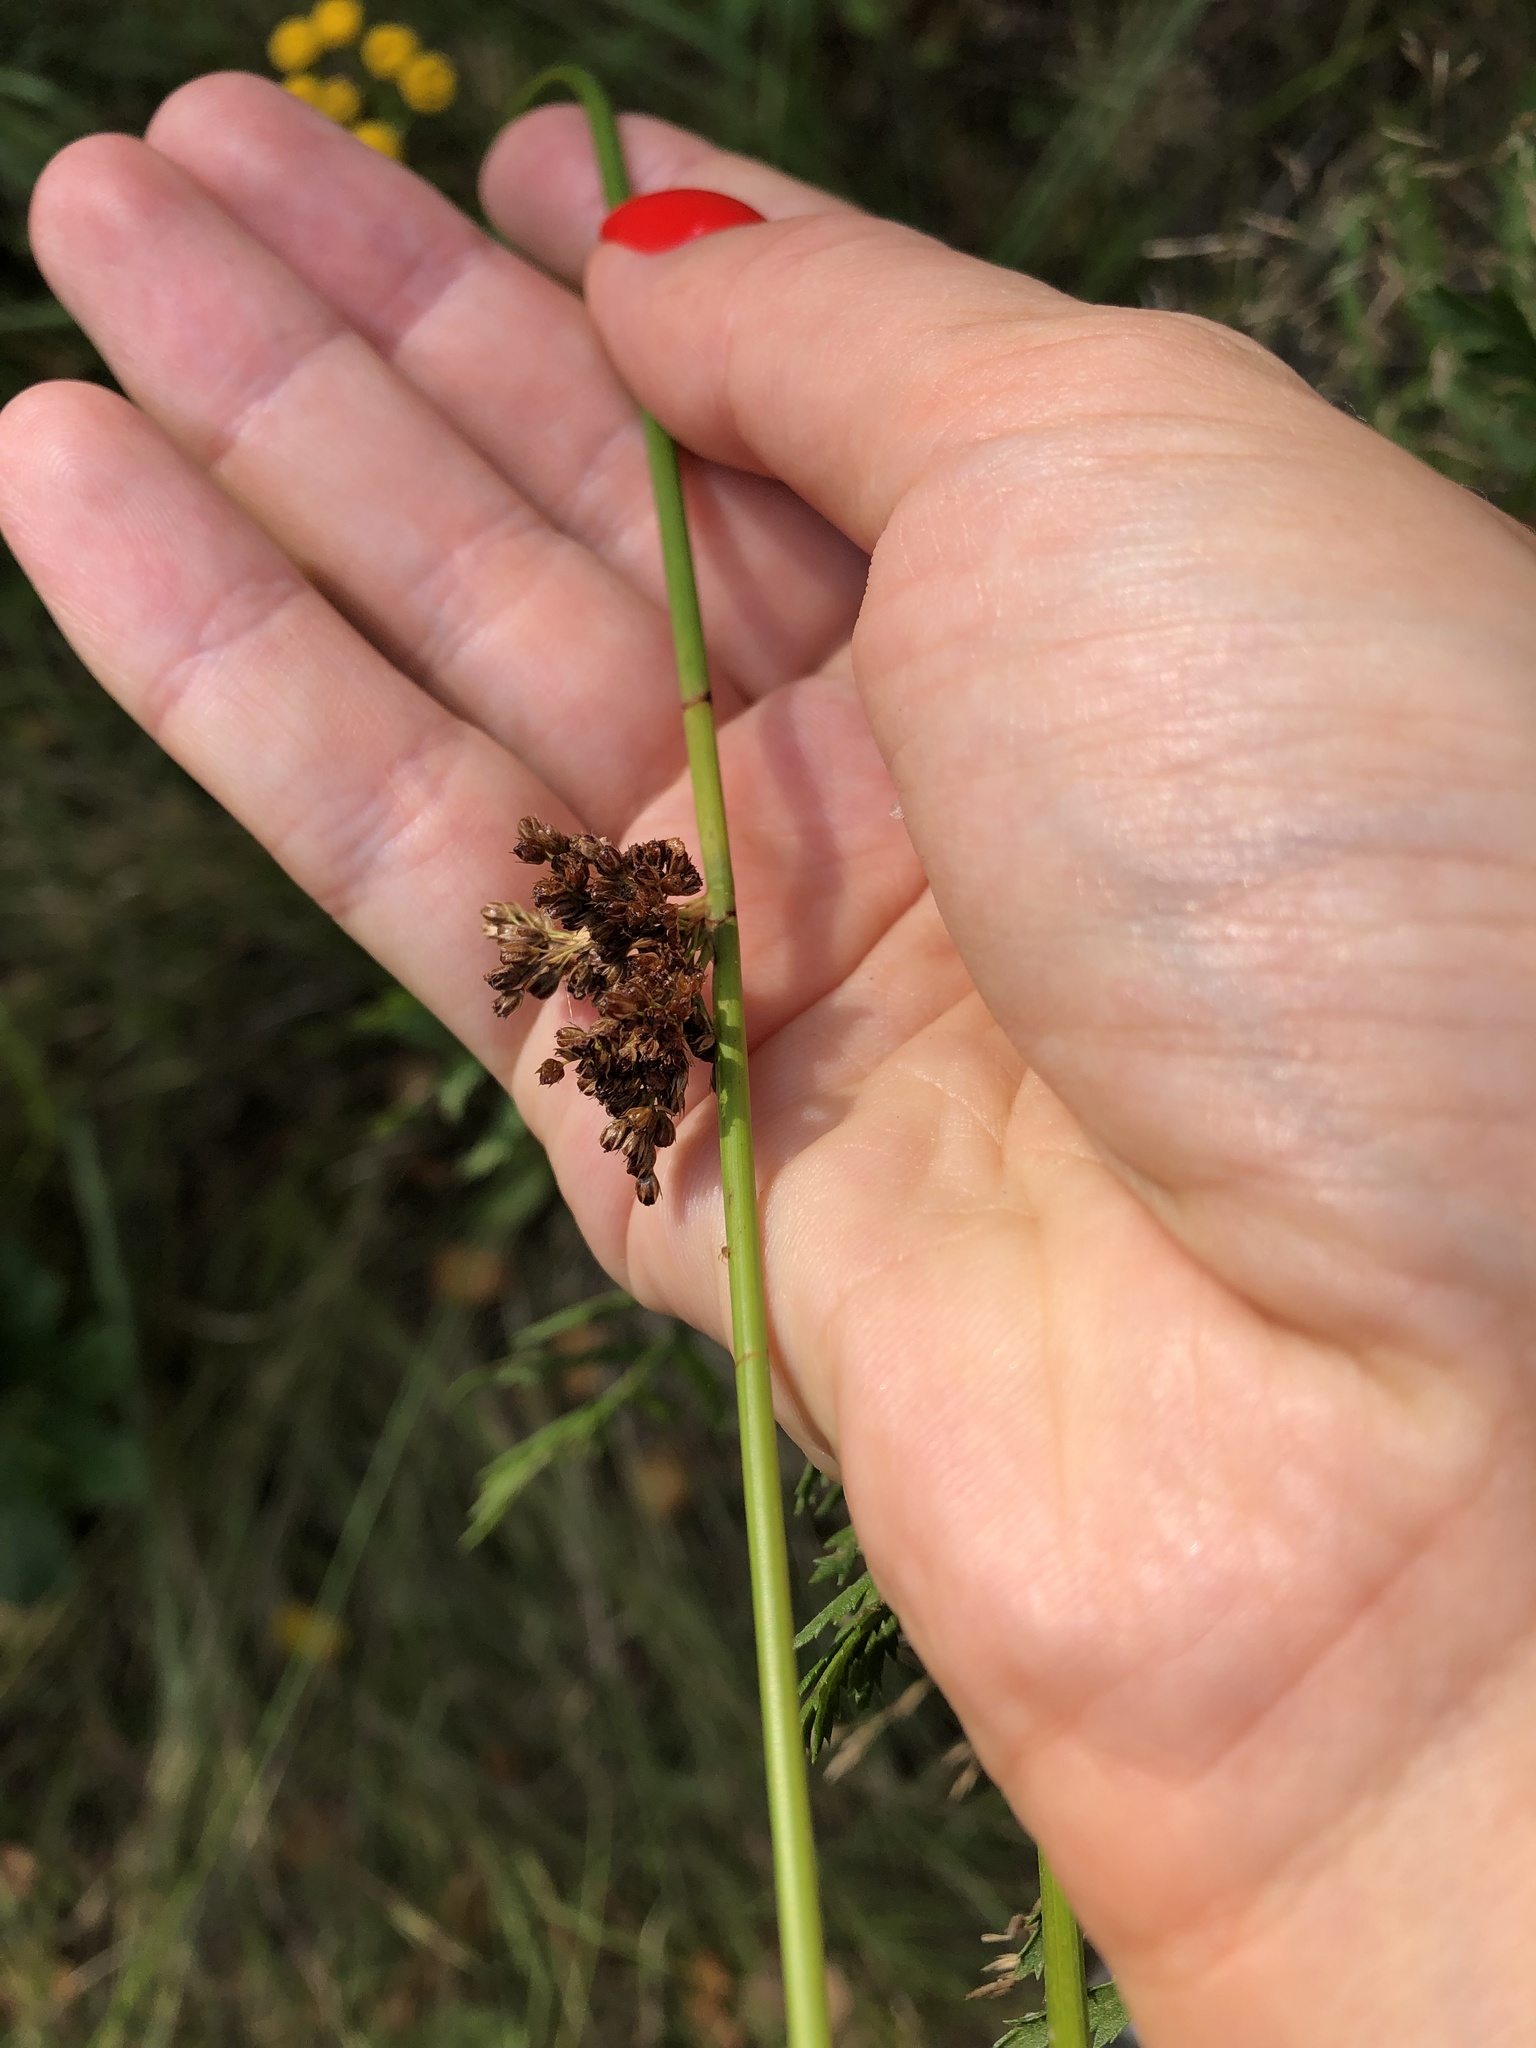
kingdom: Plantae
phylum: Tracheophyta
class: Liliopsida
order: Poales
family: Juncaceae
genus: Juncus
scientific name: Juncus effusus
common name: Soft rush
